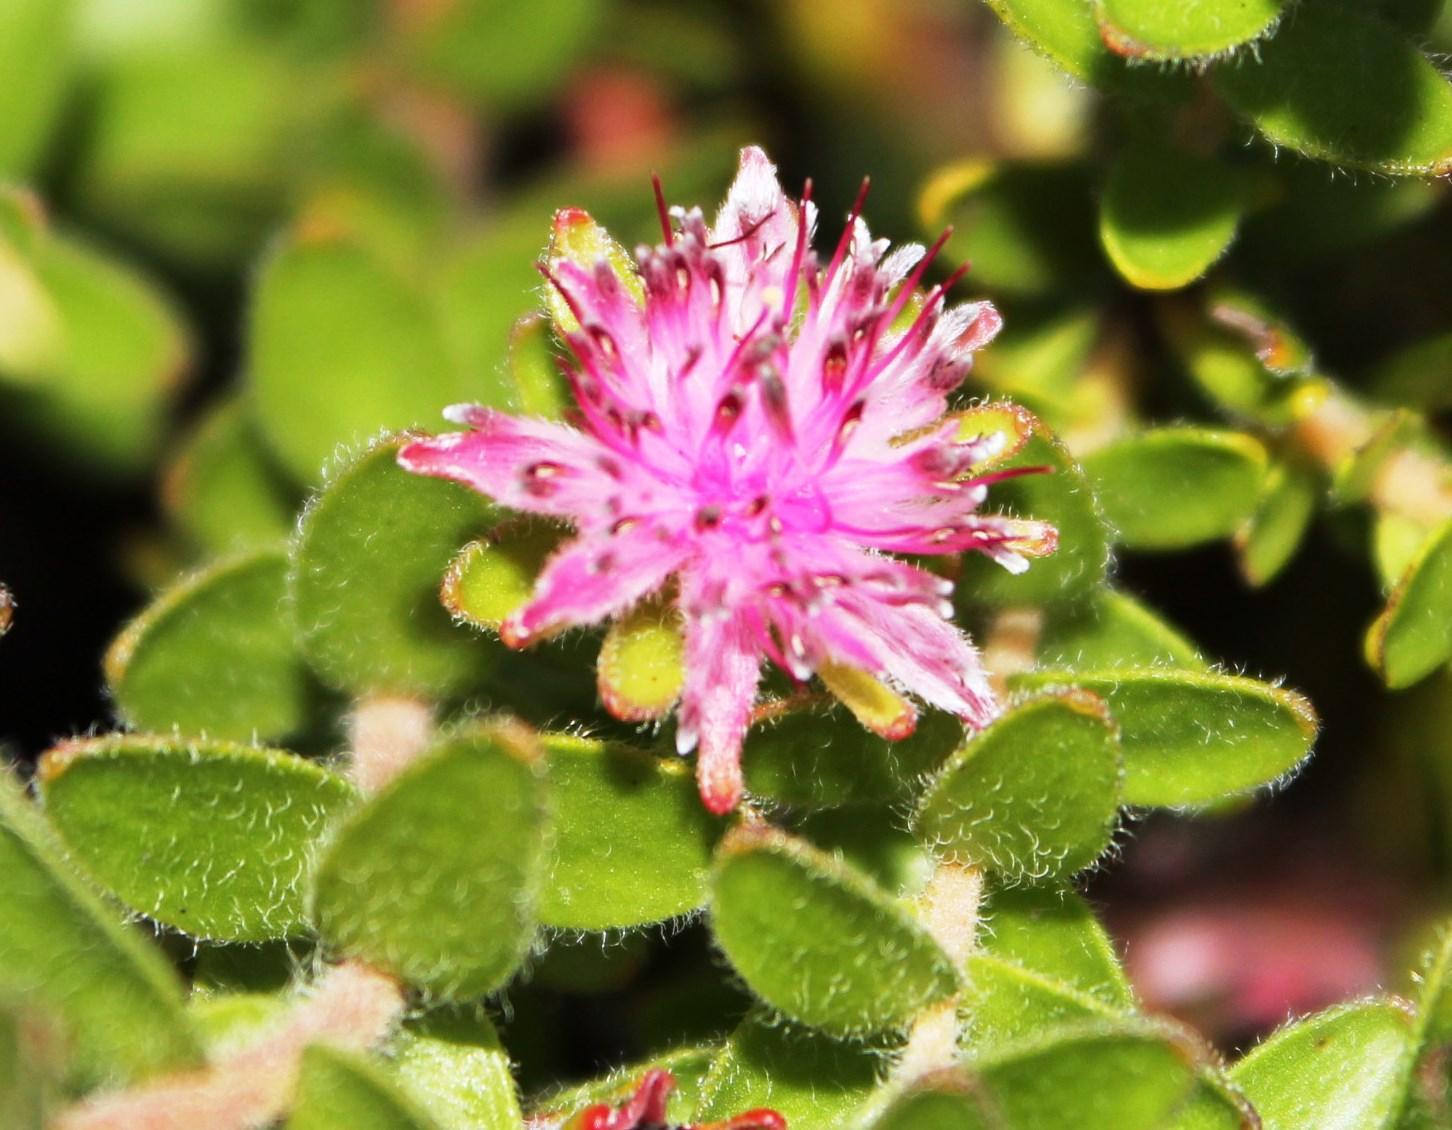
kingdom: Plantae
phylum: Tracheophyta
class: Magnoliopsida
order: Proteales
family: Proteaceae
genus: Diastella
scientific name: Diastella divaricata
